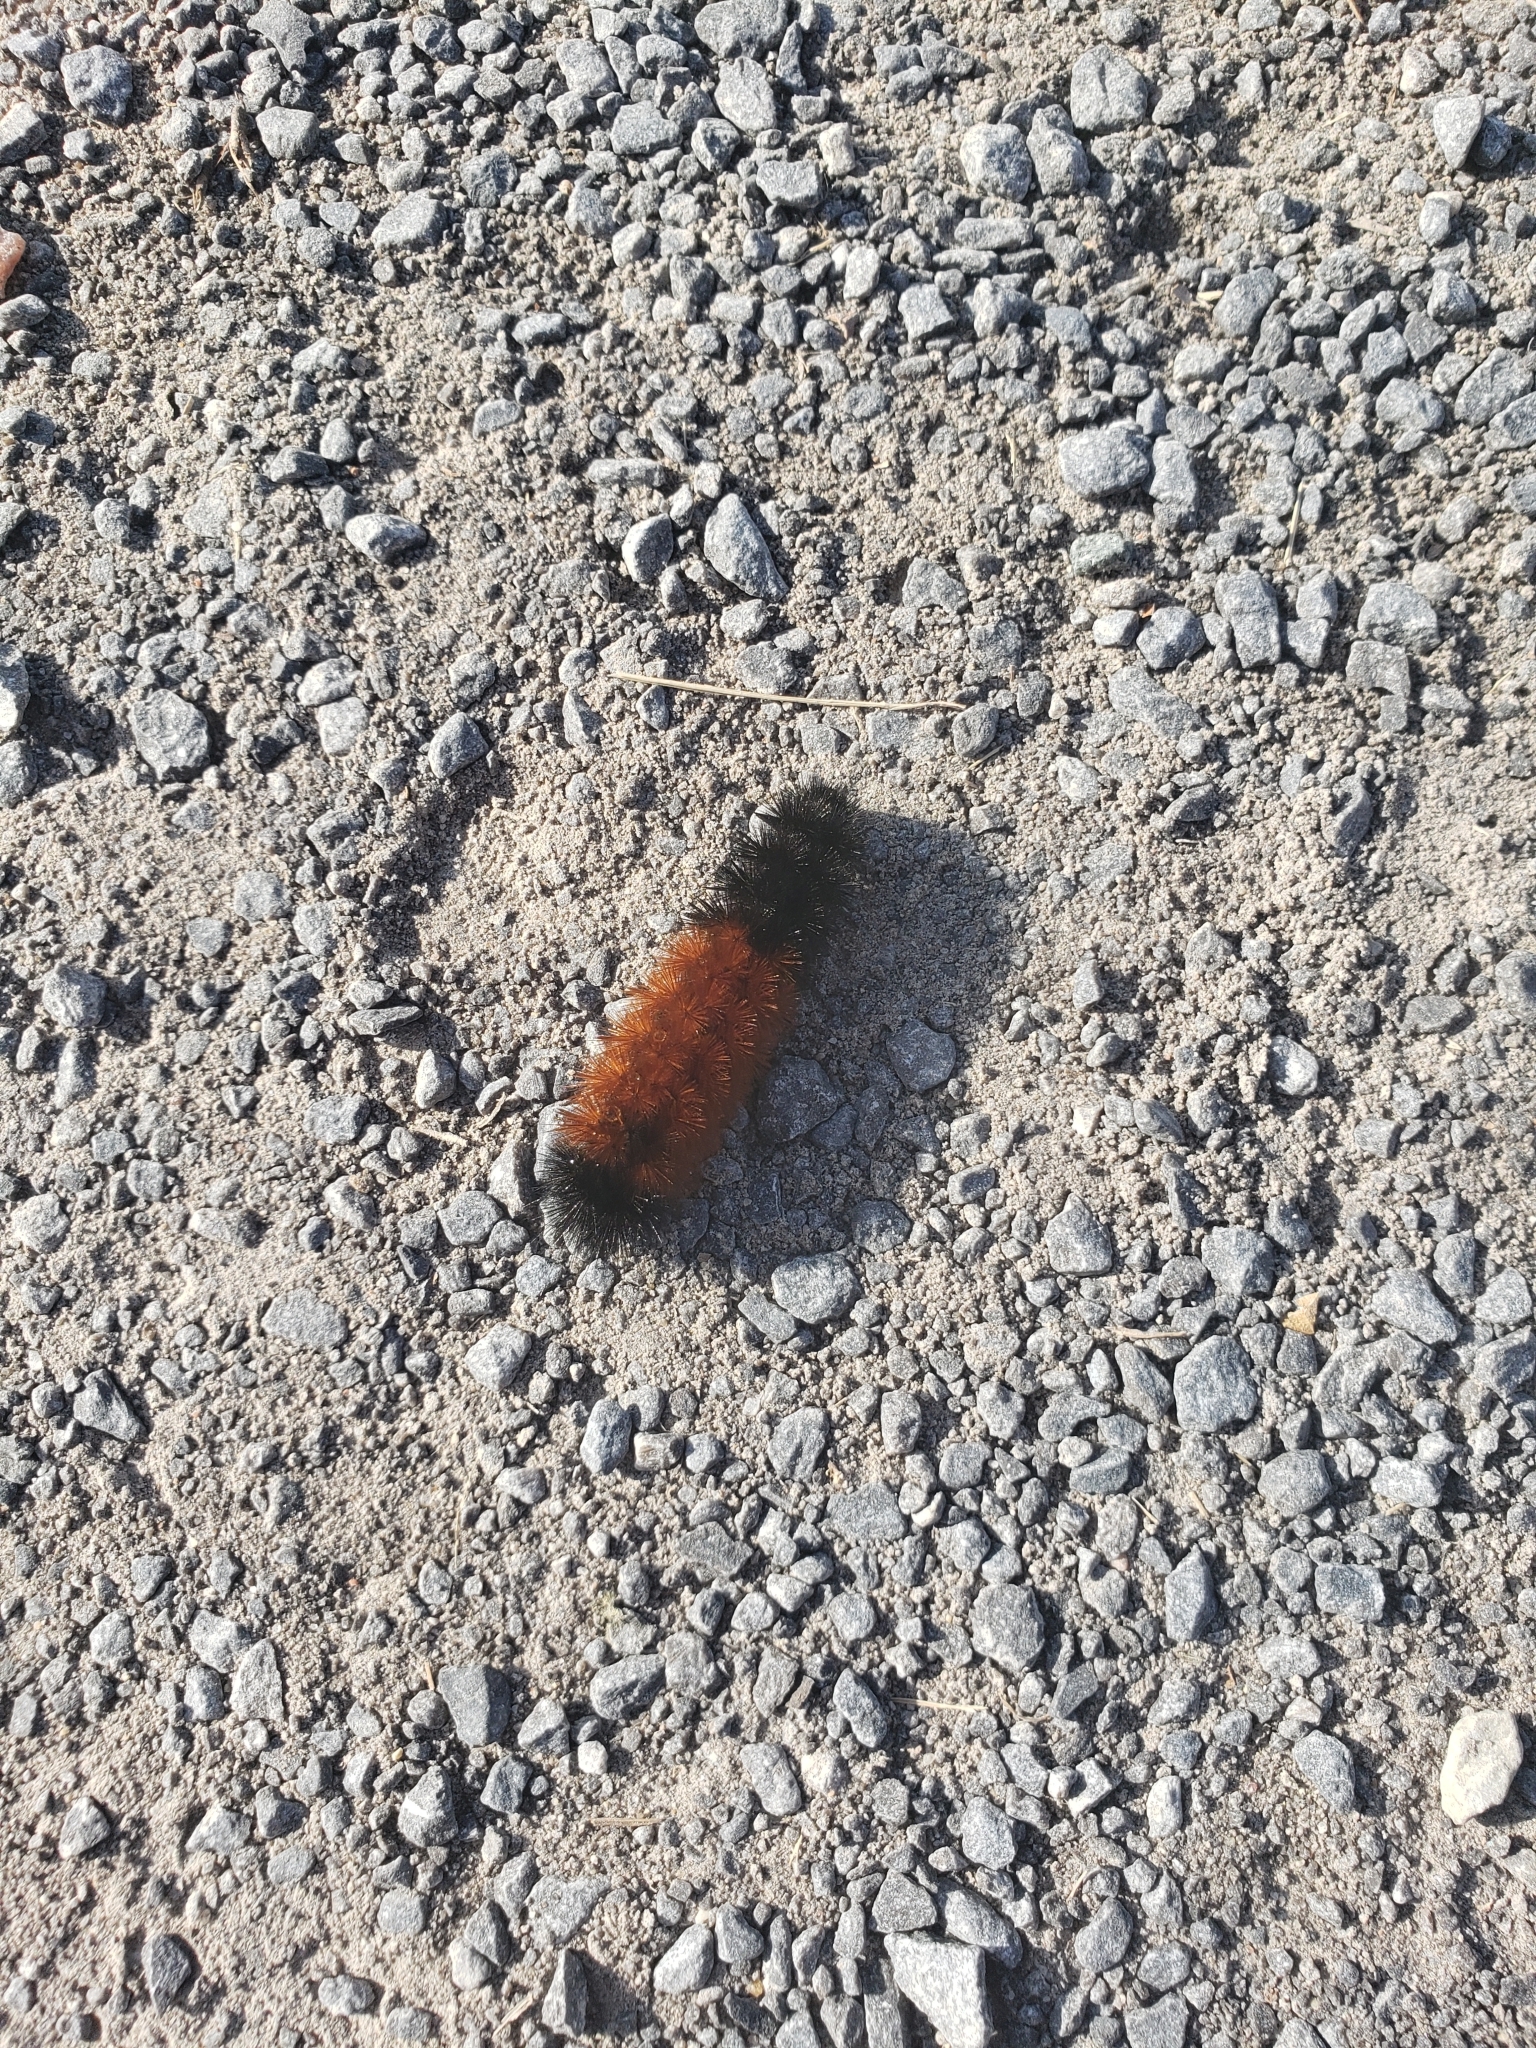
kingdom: Animalia
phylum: Arthropoda
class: Insecta
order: Lepidoptera
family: Erebidae
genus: Pyrrharctia
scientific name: Pyrrharctia isabella
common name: Isabella tiger moth
